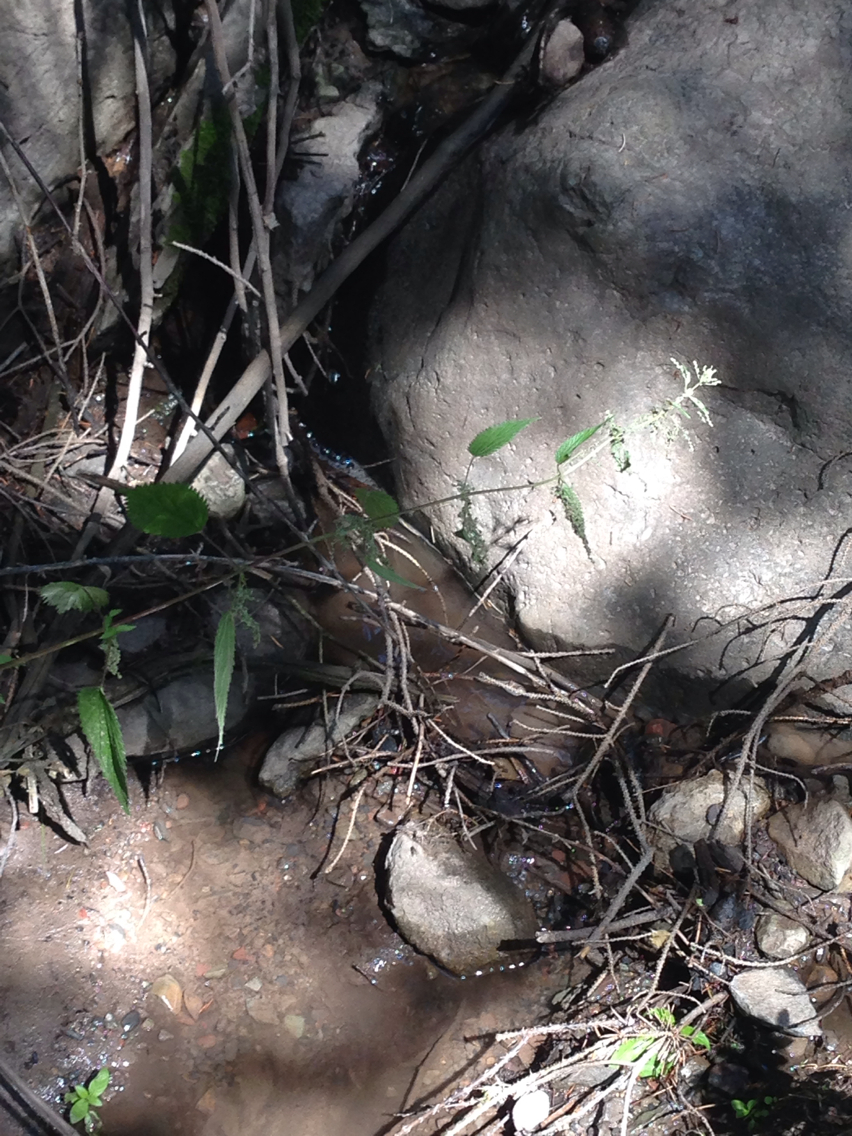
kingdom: Plantae
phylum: Tracheophyta
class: Magnoliopsida
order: Rosales
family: Urticaceae
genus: Urtica
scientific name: Urtica dioica
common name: Common nettle
